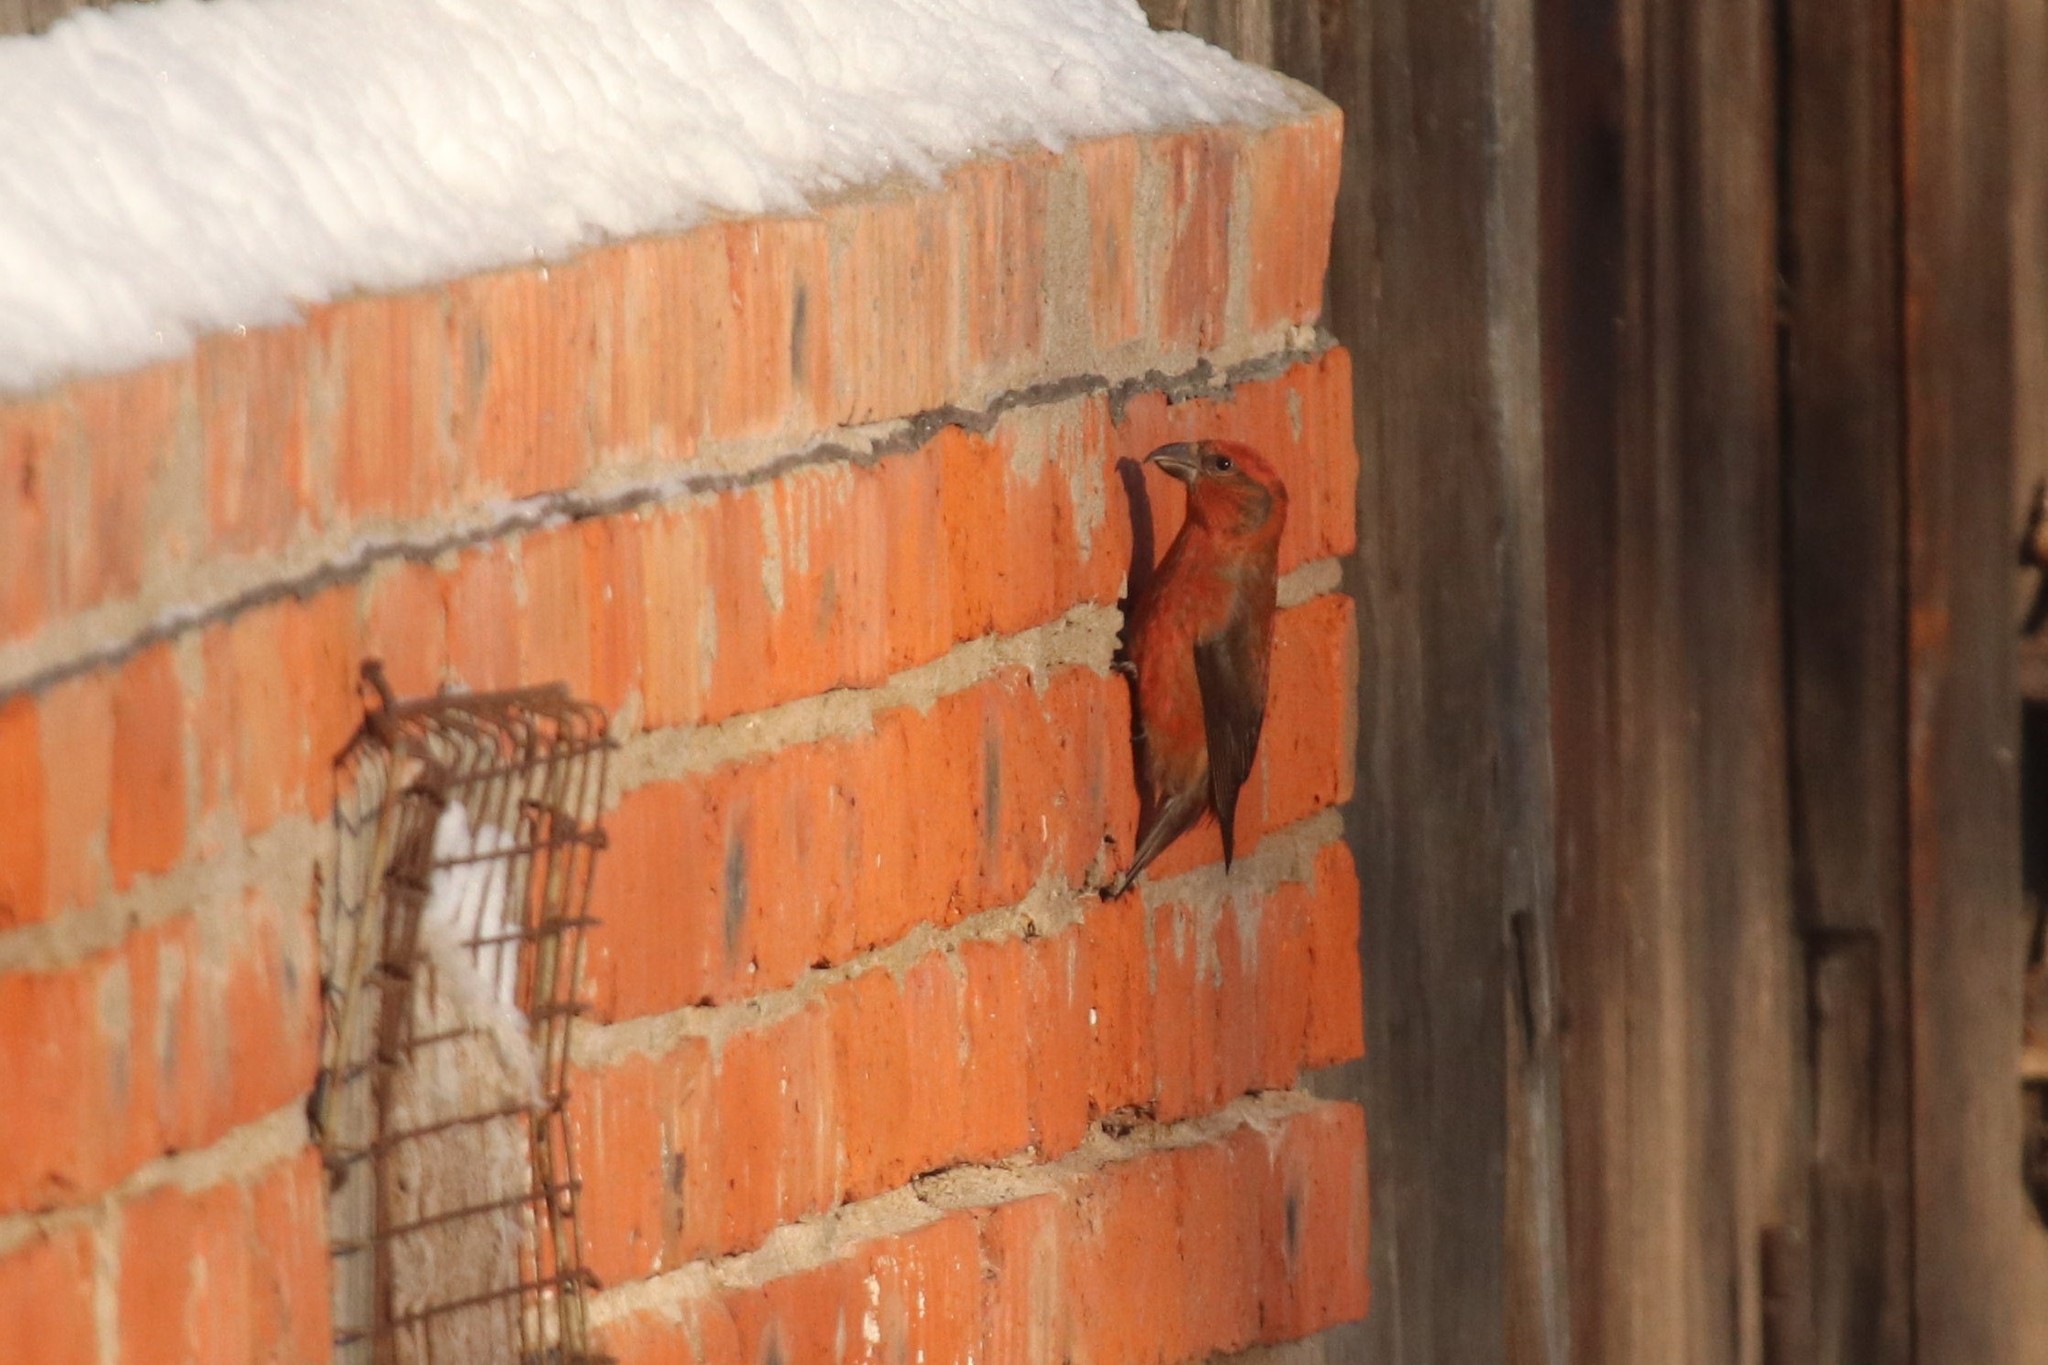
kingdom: Animalia
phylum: Chordata
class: Aves
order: Passeriformes
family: Fringillidae
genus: Loxia
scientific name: Loxia curvirostra
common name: Red crossbill
